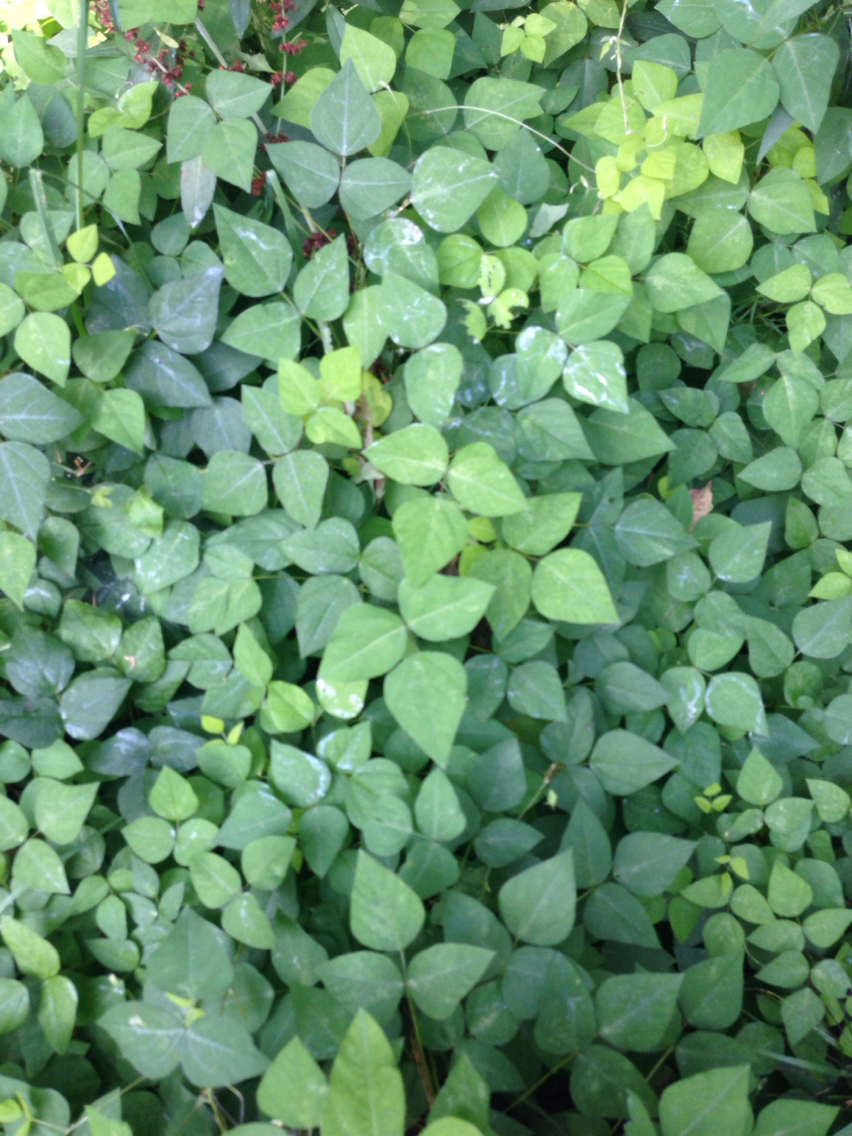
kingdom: Plantae
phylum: Tracheophyta
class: Magnoliopsida
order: Fabales
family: Fabaceae
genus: Amphicarpaea
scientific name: Amphicarpaea bracteata
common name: American hog peanut
